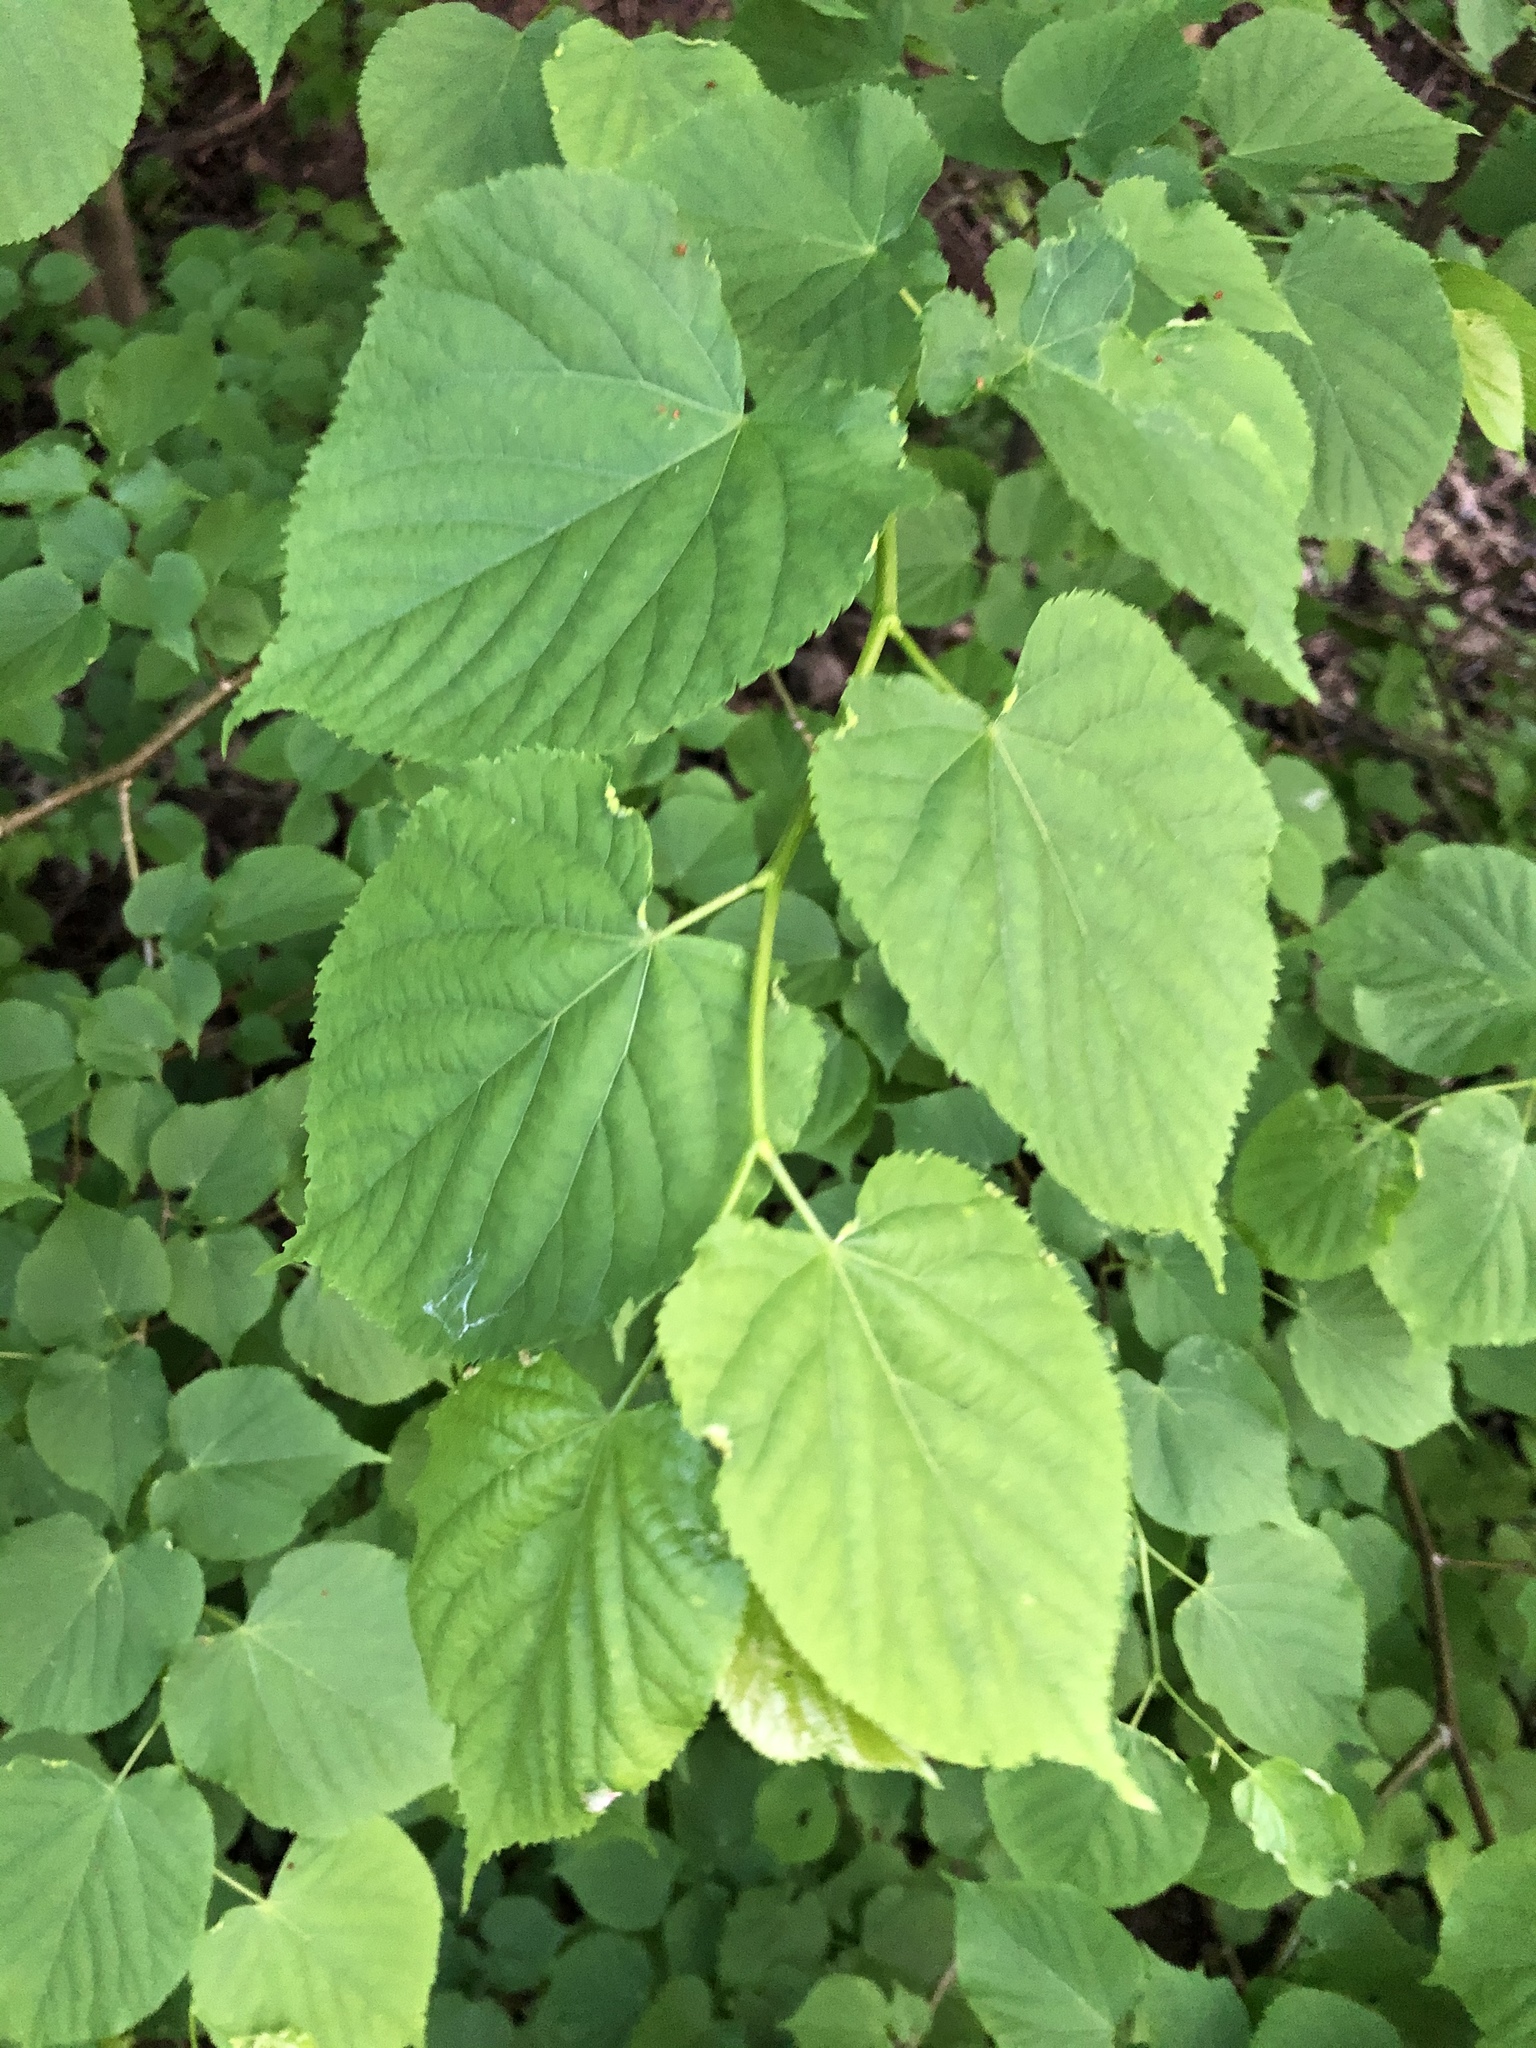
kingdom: Plantae
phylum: Tracheophyta
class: Magnoliopsida
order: Malvales
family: Malvaceae
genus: Tilia
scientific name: Tilia americana
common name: Basswood
